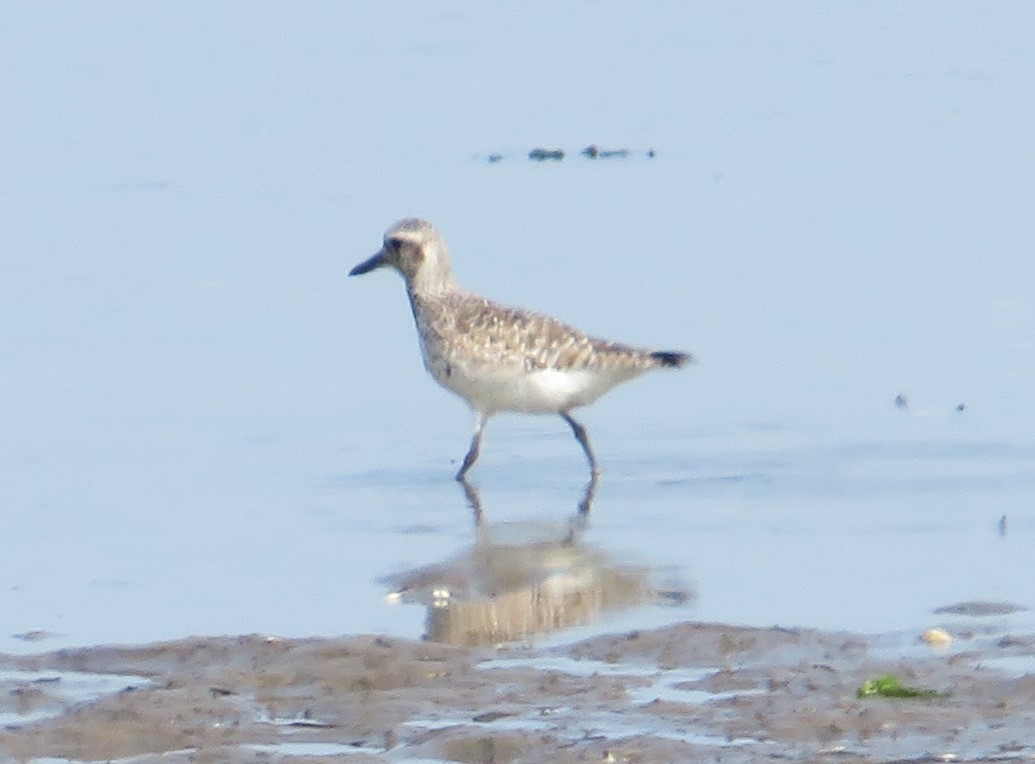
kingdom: Animalia
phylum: Chordata
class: Aves
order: Charadriiformes
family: Charadriidae
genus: Pluvialis
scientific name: Pluvialis squatarola
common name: Grey plover
